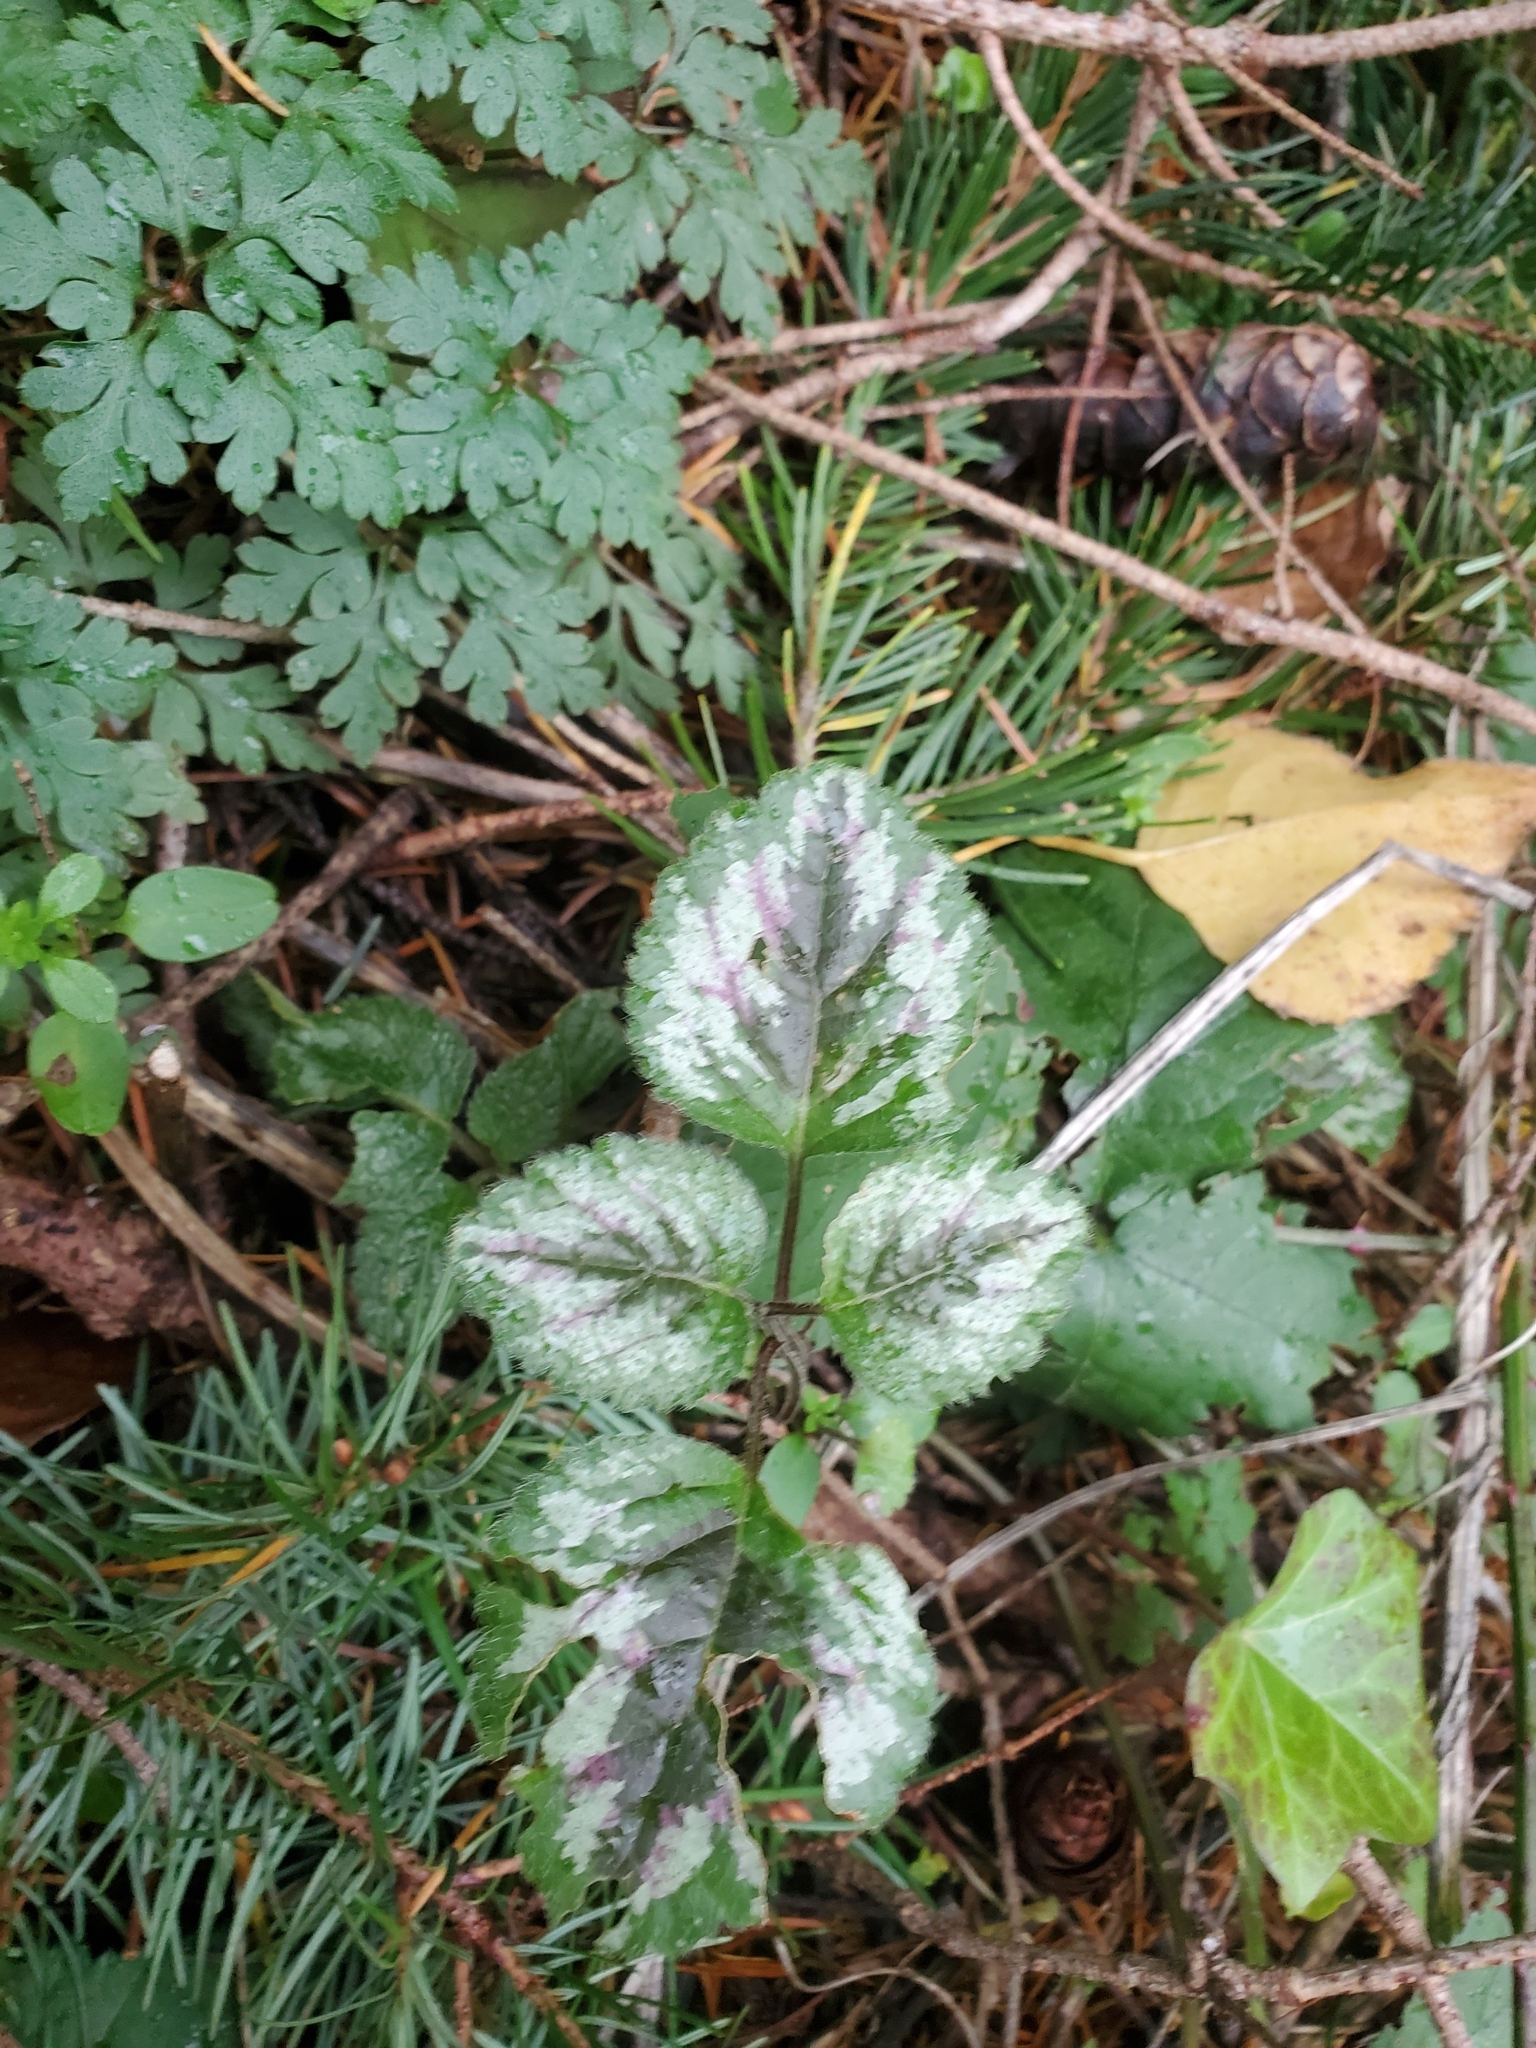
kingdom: Plantae
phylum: Tracheophyta
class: Magnoliopsida
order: Lamiales
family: Lamiaceae
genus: Lamium
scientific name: Lamium galeobdolon
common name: Yellow archangel
